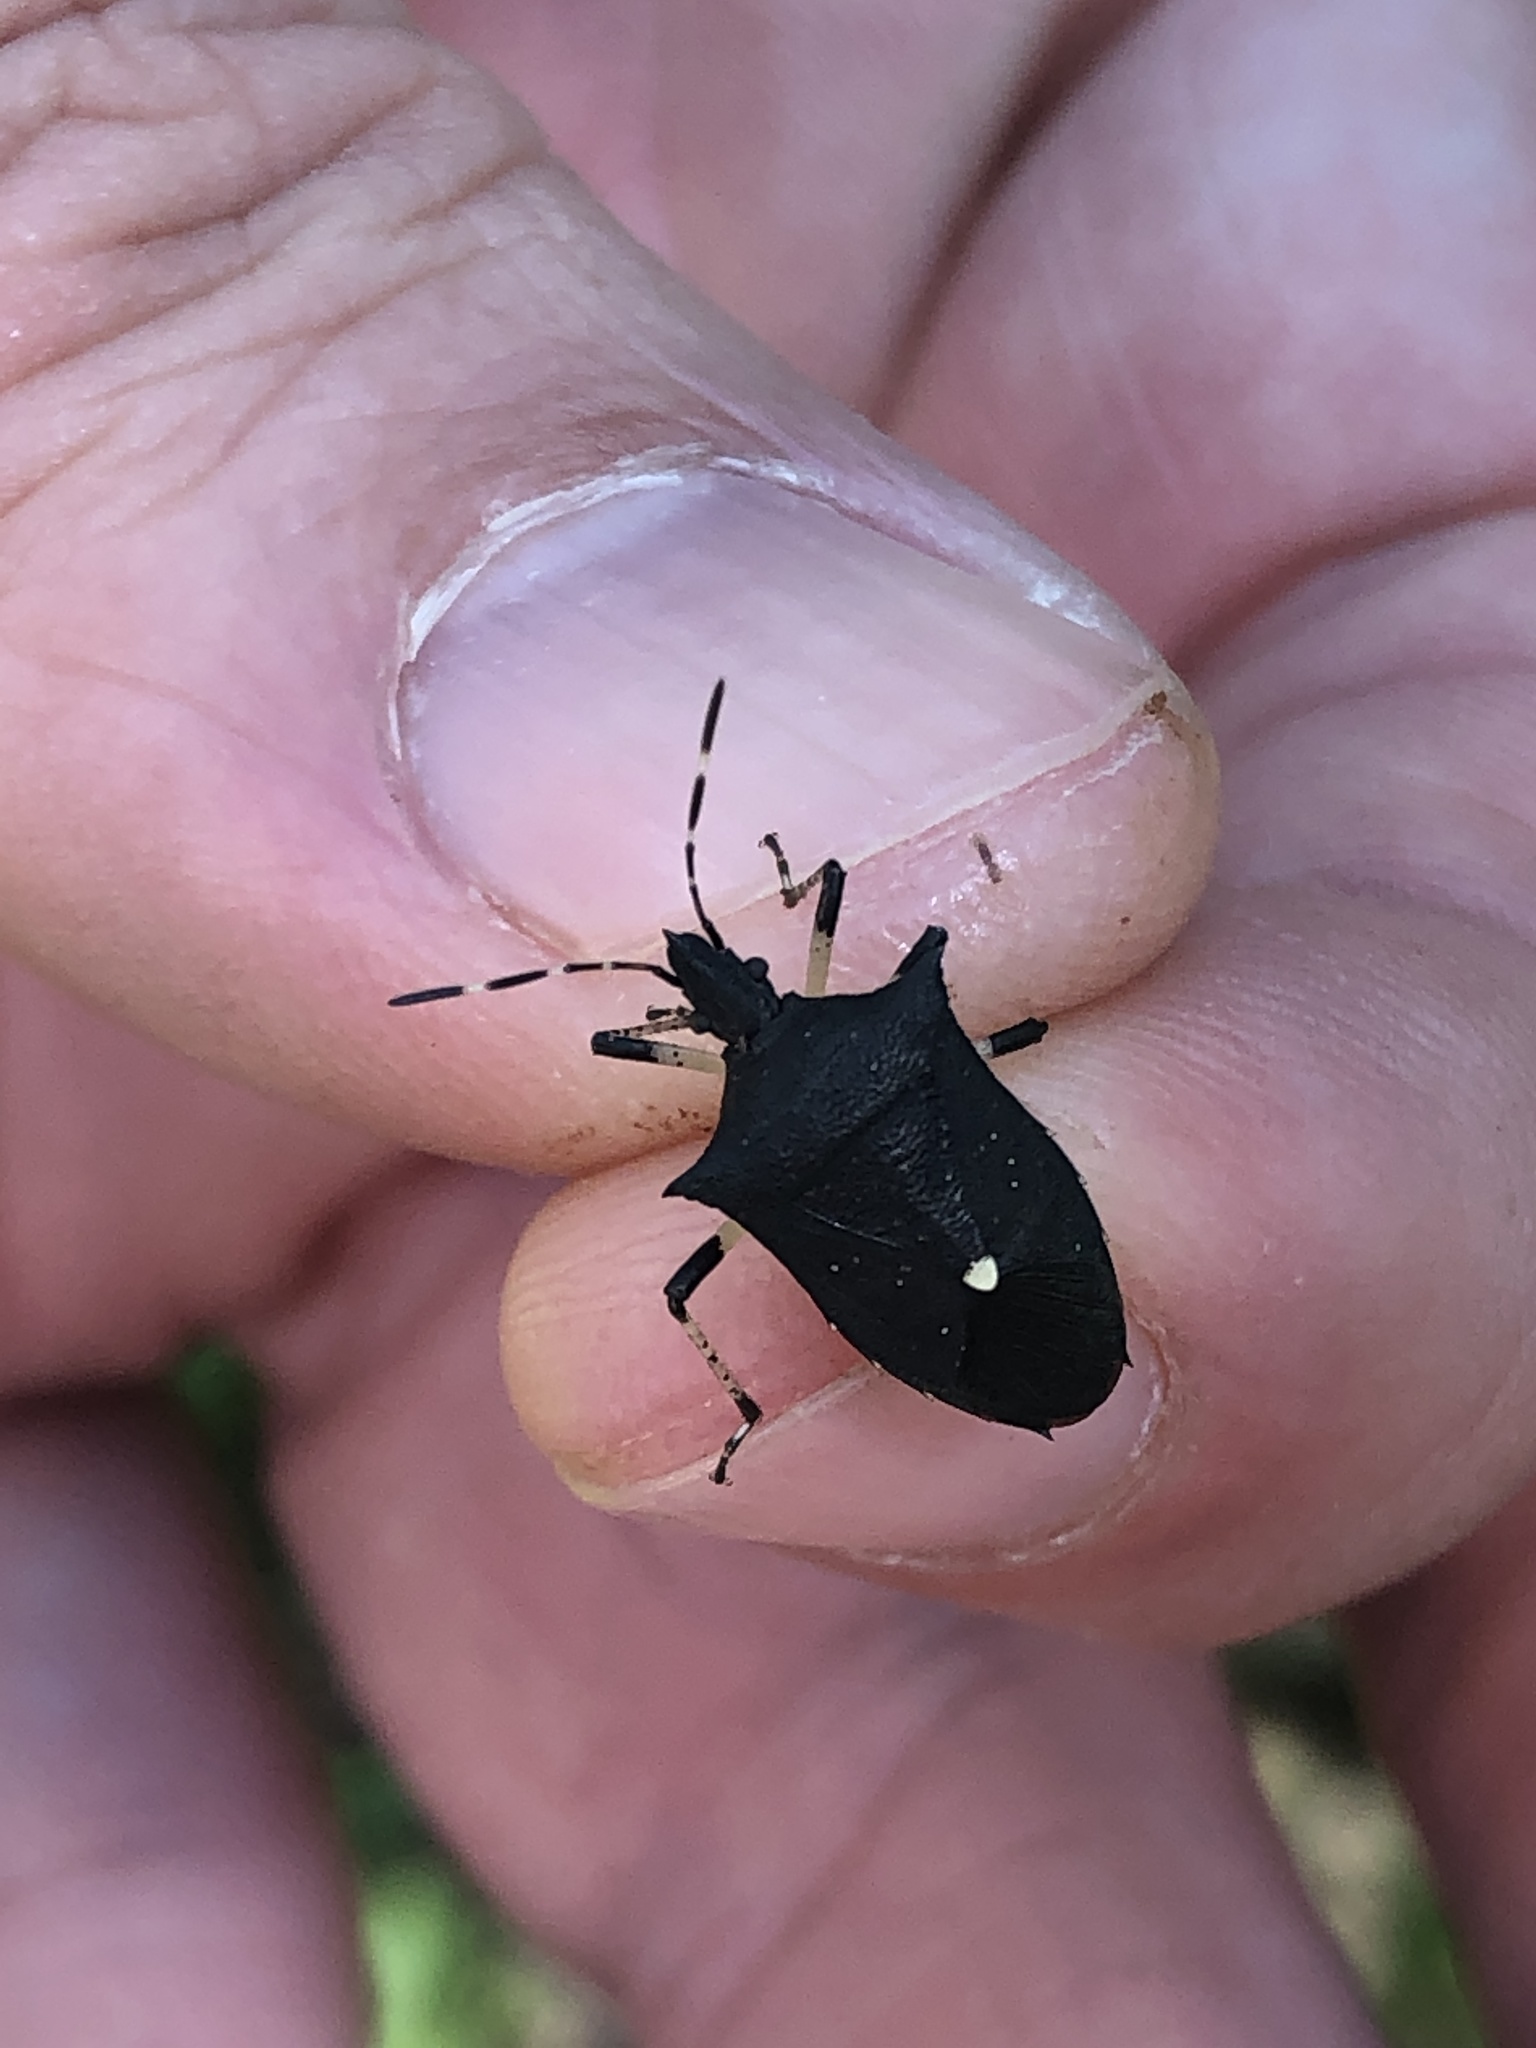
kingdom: Animalia
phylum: Arthropoda
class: Insecta
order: Hemiptera
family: Pentatomidae
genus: Proxys
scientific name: Proxys punctulatus
